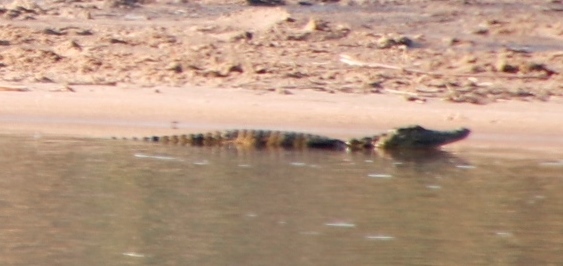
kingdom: Animalia
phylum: Chordata
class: Crocodylia
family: Crocodylidae
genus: Crocodylus
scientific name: Crocodylus niloticus
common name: Nile crocodile
